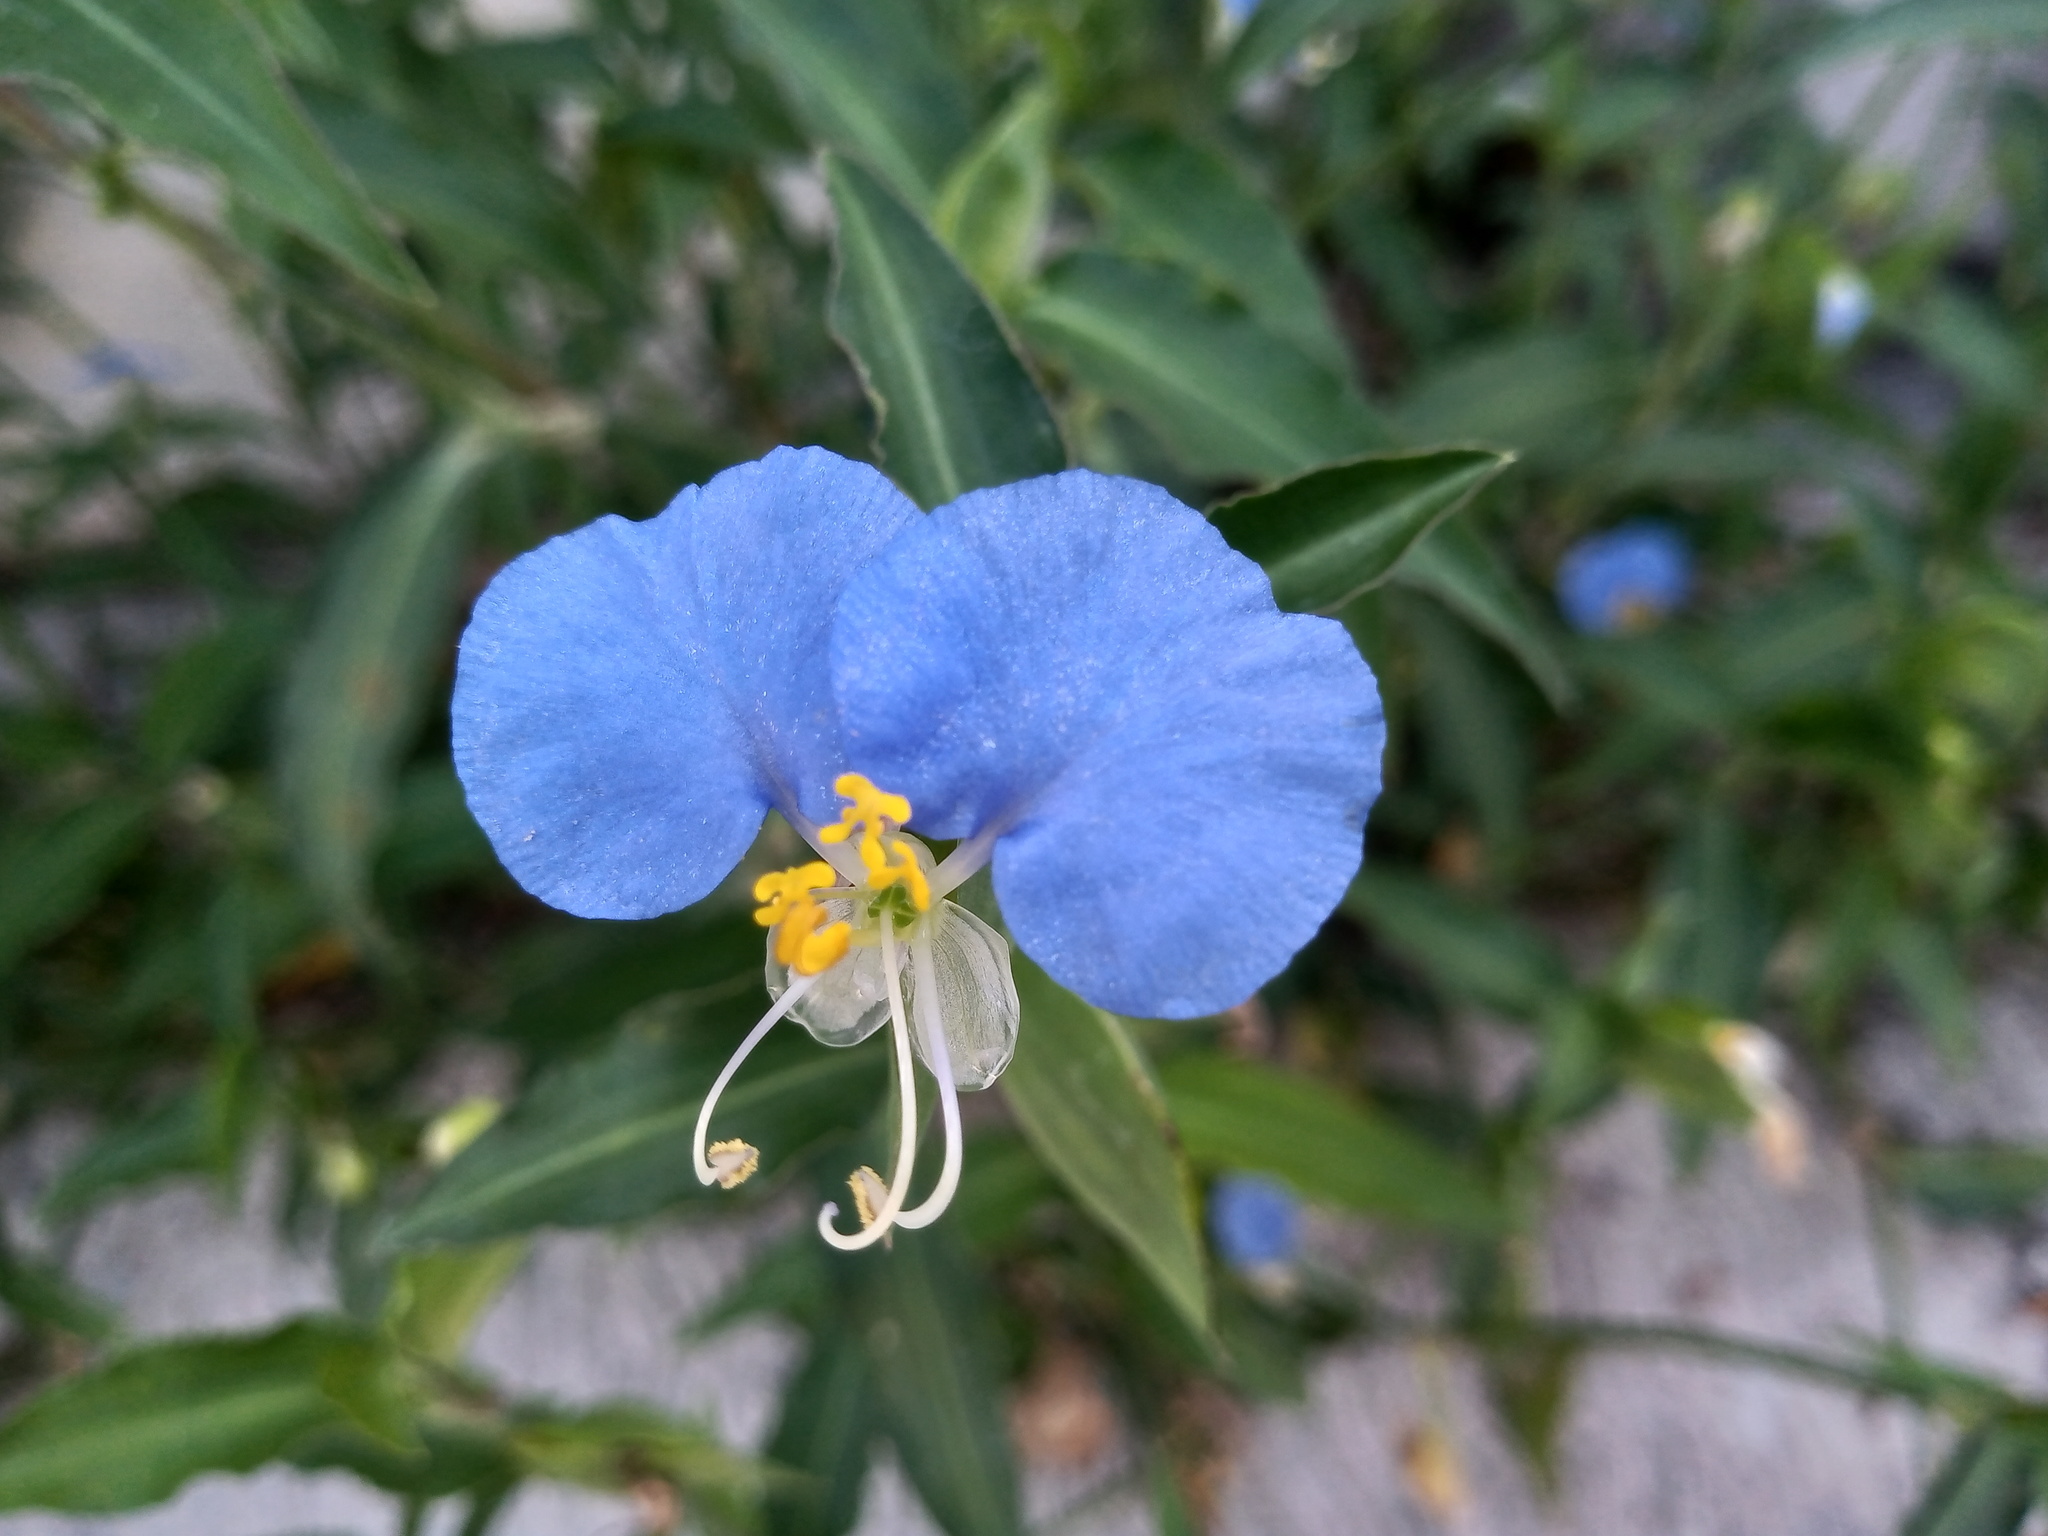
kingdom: Plantae
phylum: Tracheophyta
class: Liliopsida
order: Commelinales
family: Commelinaceae
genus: Commelina
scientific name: Commelina erecta
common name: Blousel blommetjie
